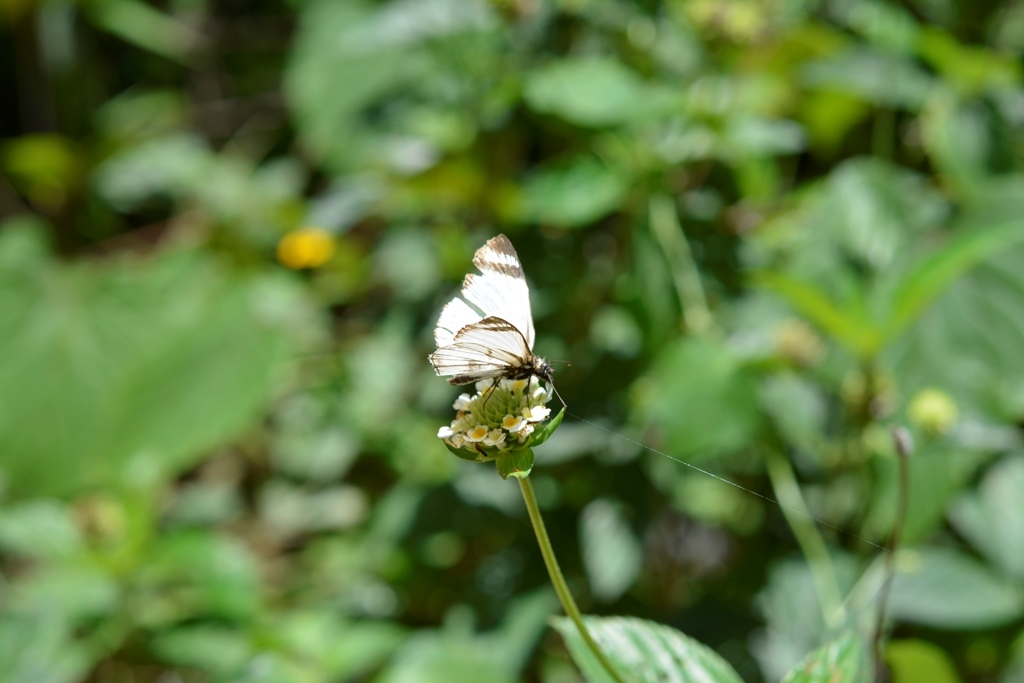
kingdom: Animalia
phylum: Arthropoda
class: Insecta
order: Lepidoptera
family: Hesperiidae
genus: Heliopetes
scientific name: Heliopetes arsalte
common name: Veined white-skipper
